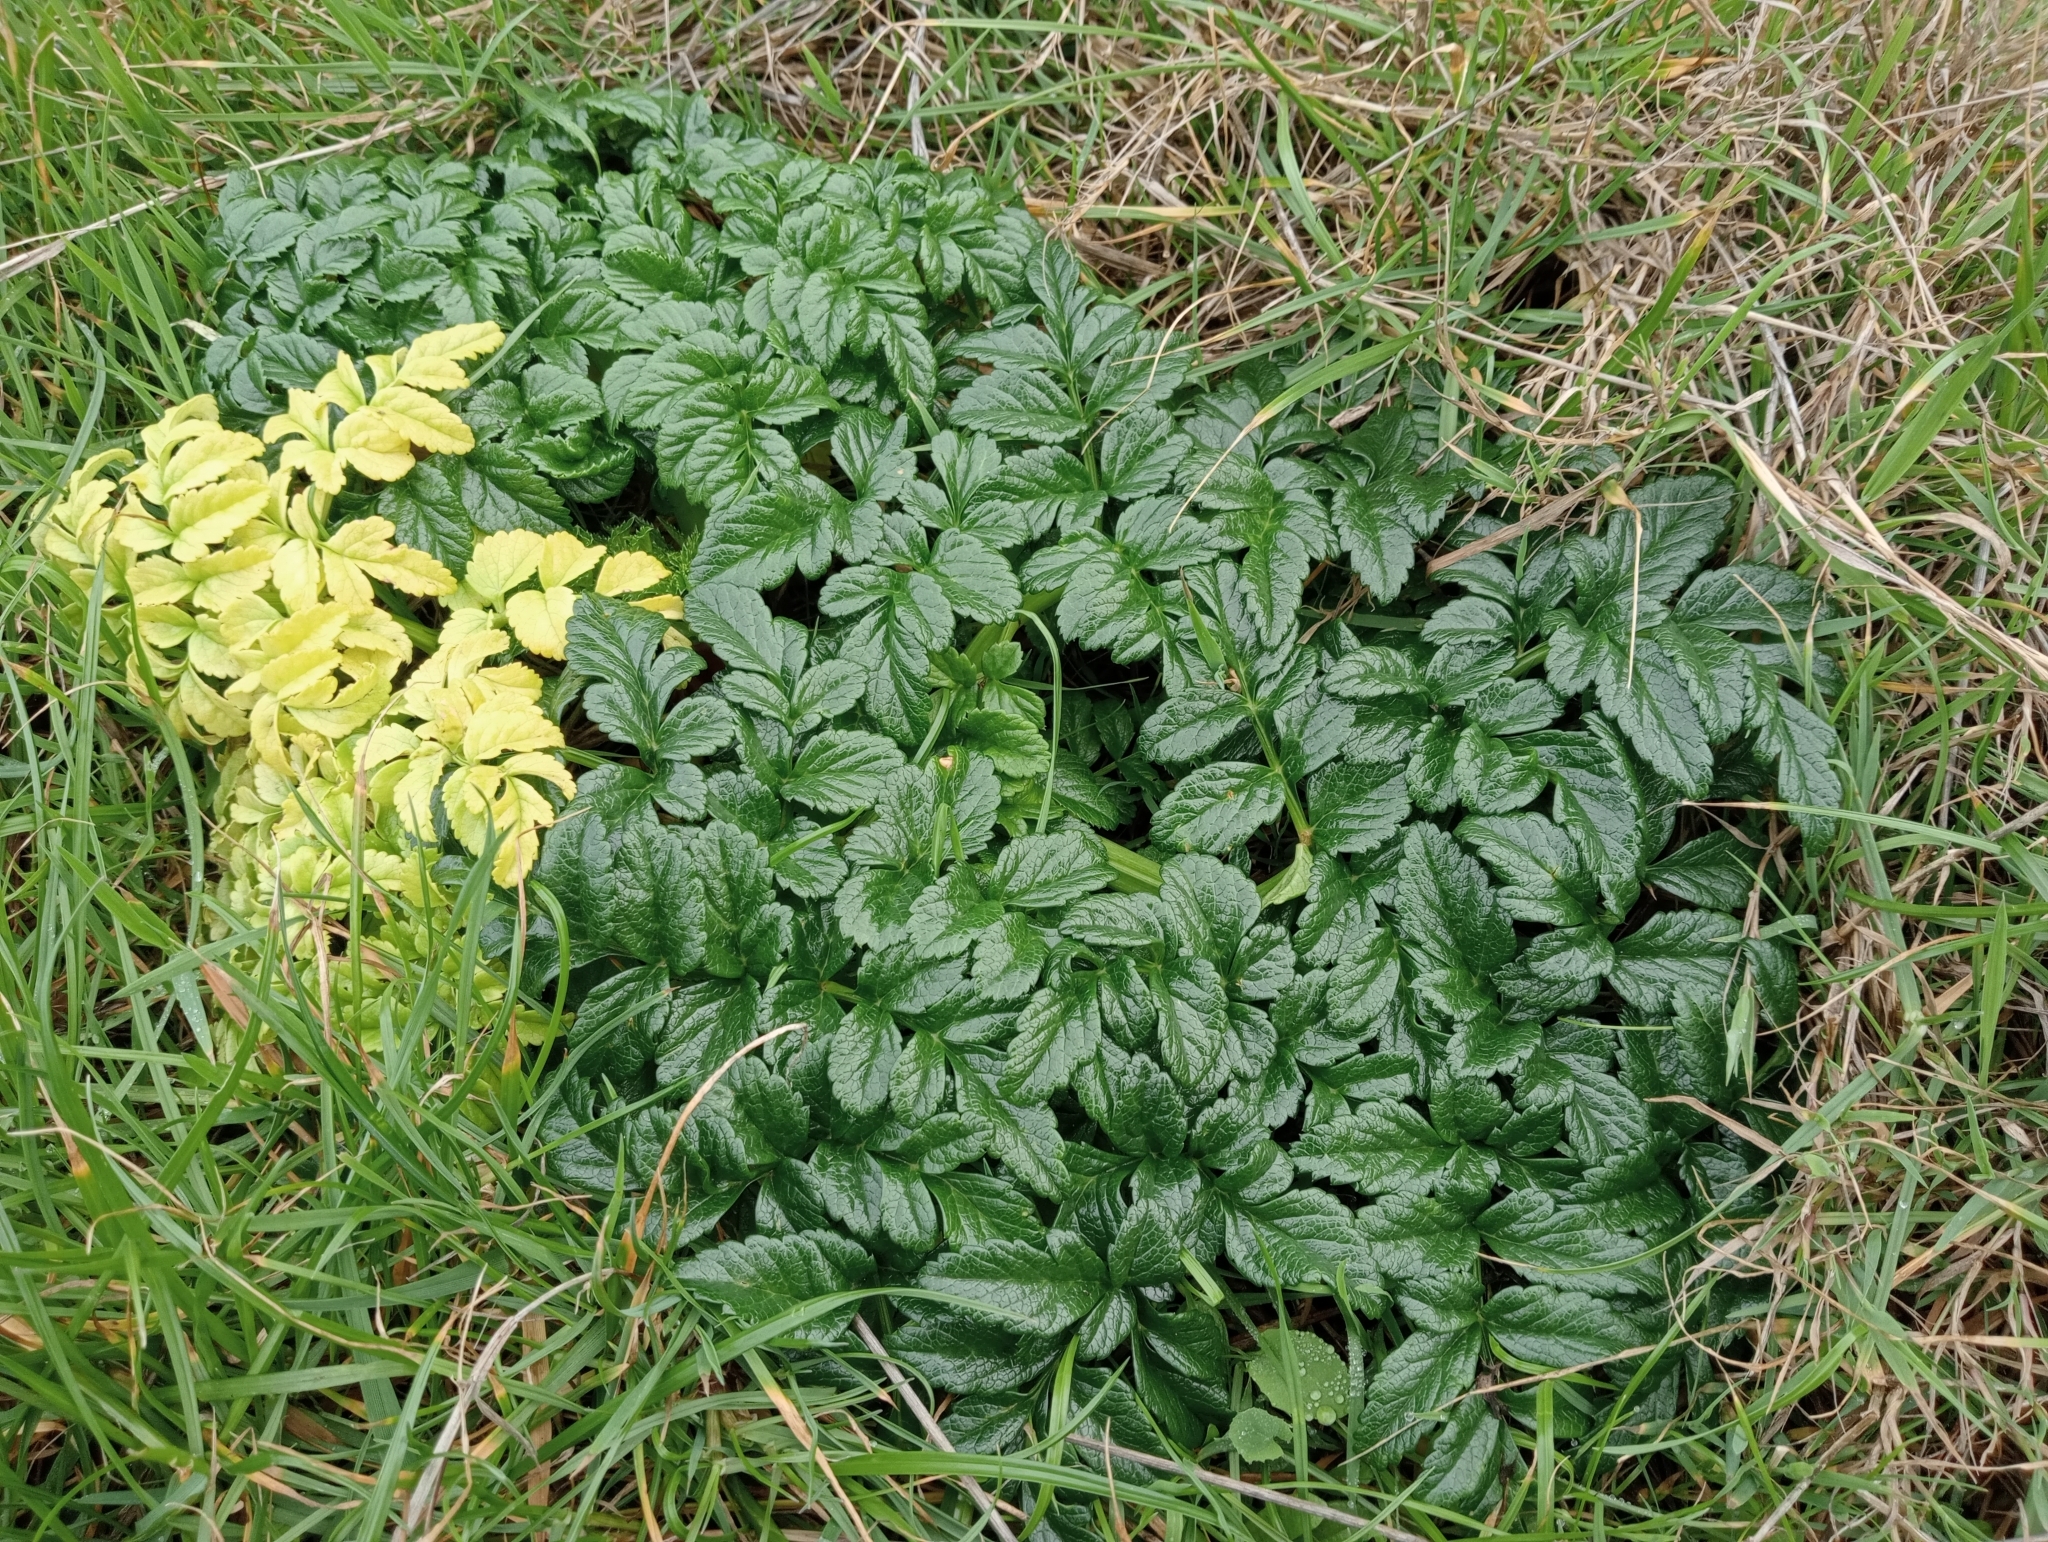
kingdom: Plantae
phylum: Tracheophyta
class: Magnoliopsida
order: Apiales
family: Apiaceae
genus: Angelica
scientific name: Angelica pachycarpa
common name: Portuguese angelica
